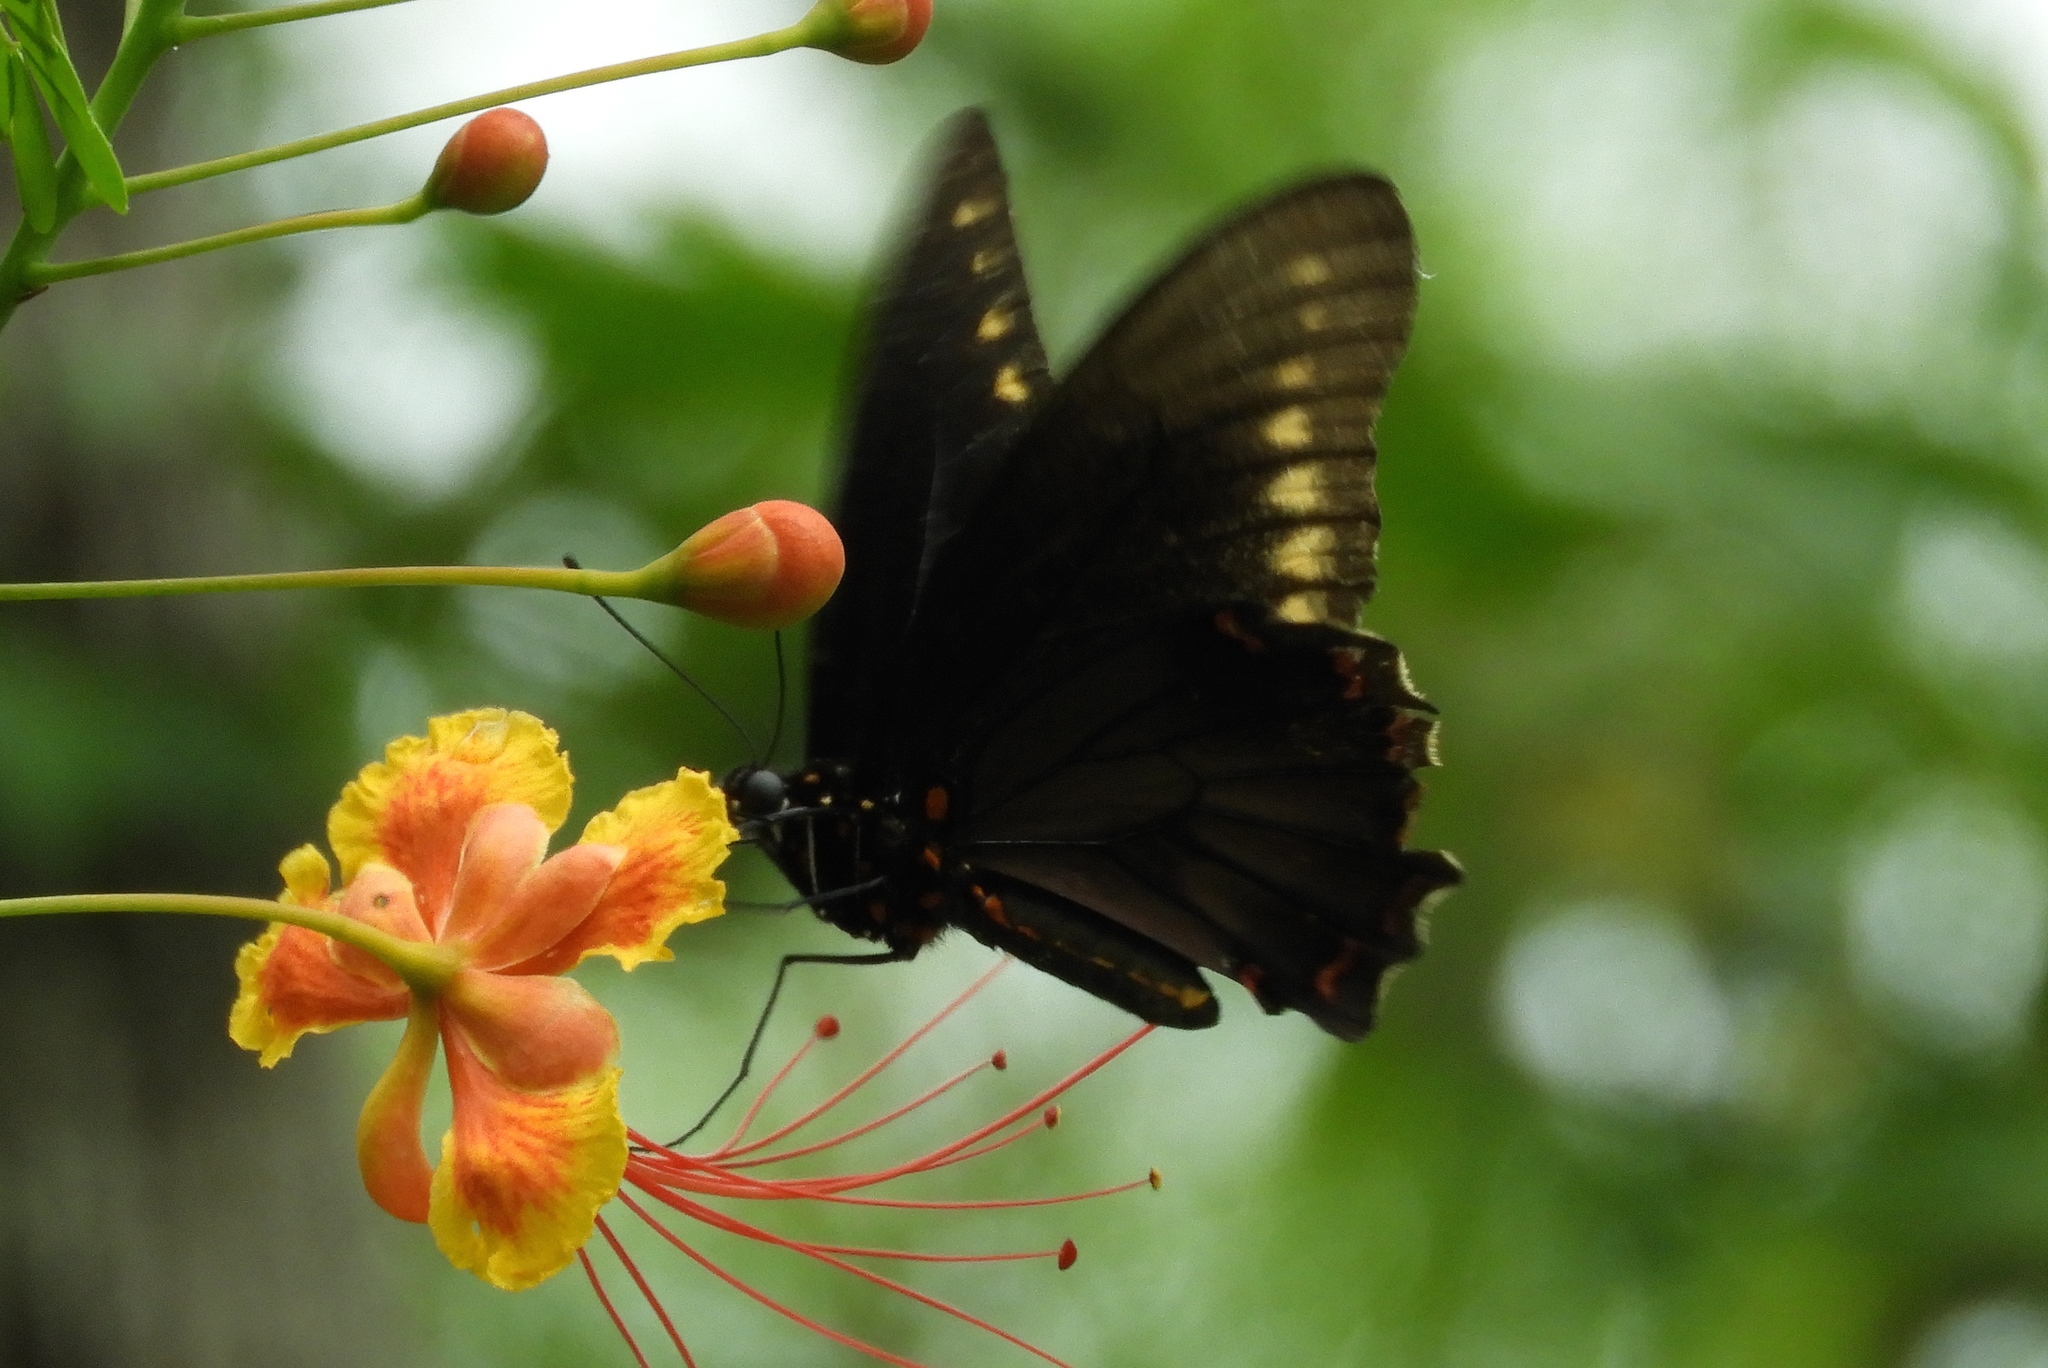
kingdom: Animalia
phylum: Arthropoda
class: Insecta
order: Lepidoptera
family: Papilionidae
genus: Battus
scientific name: Battus polydamas
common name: Polydamas swallowtail
